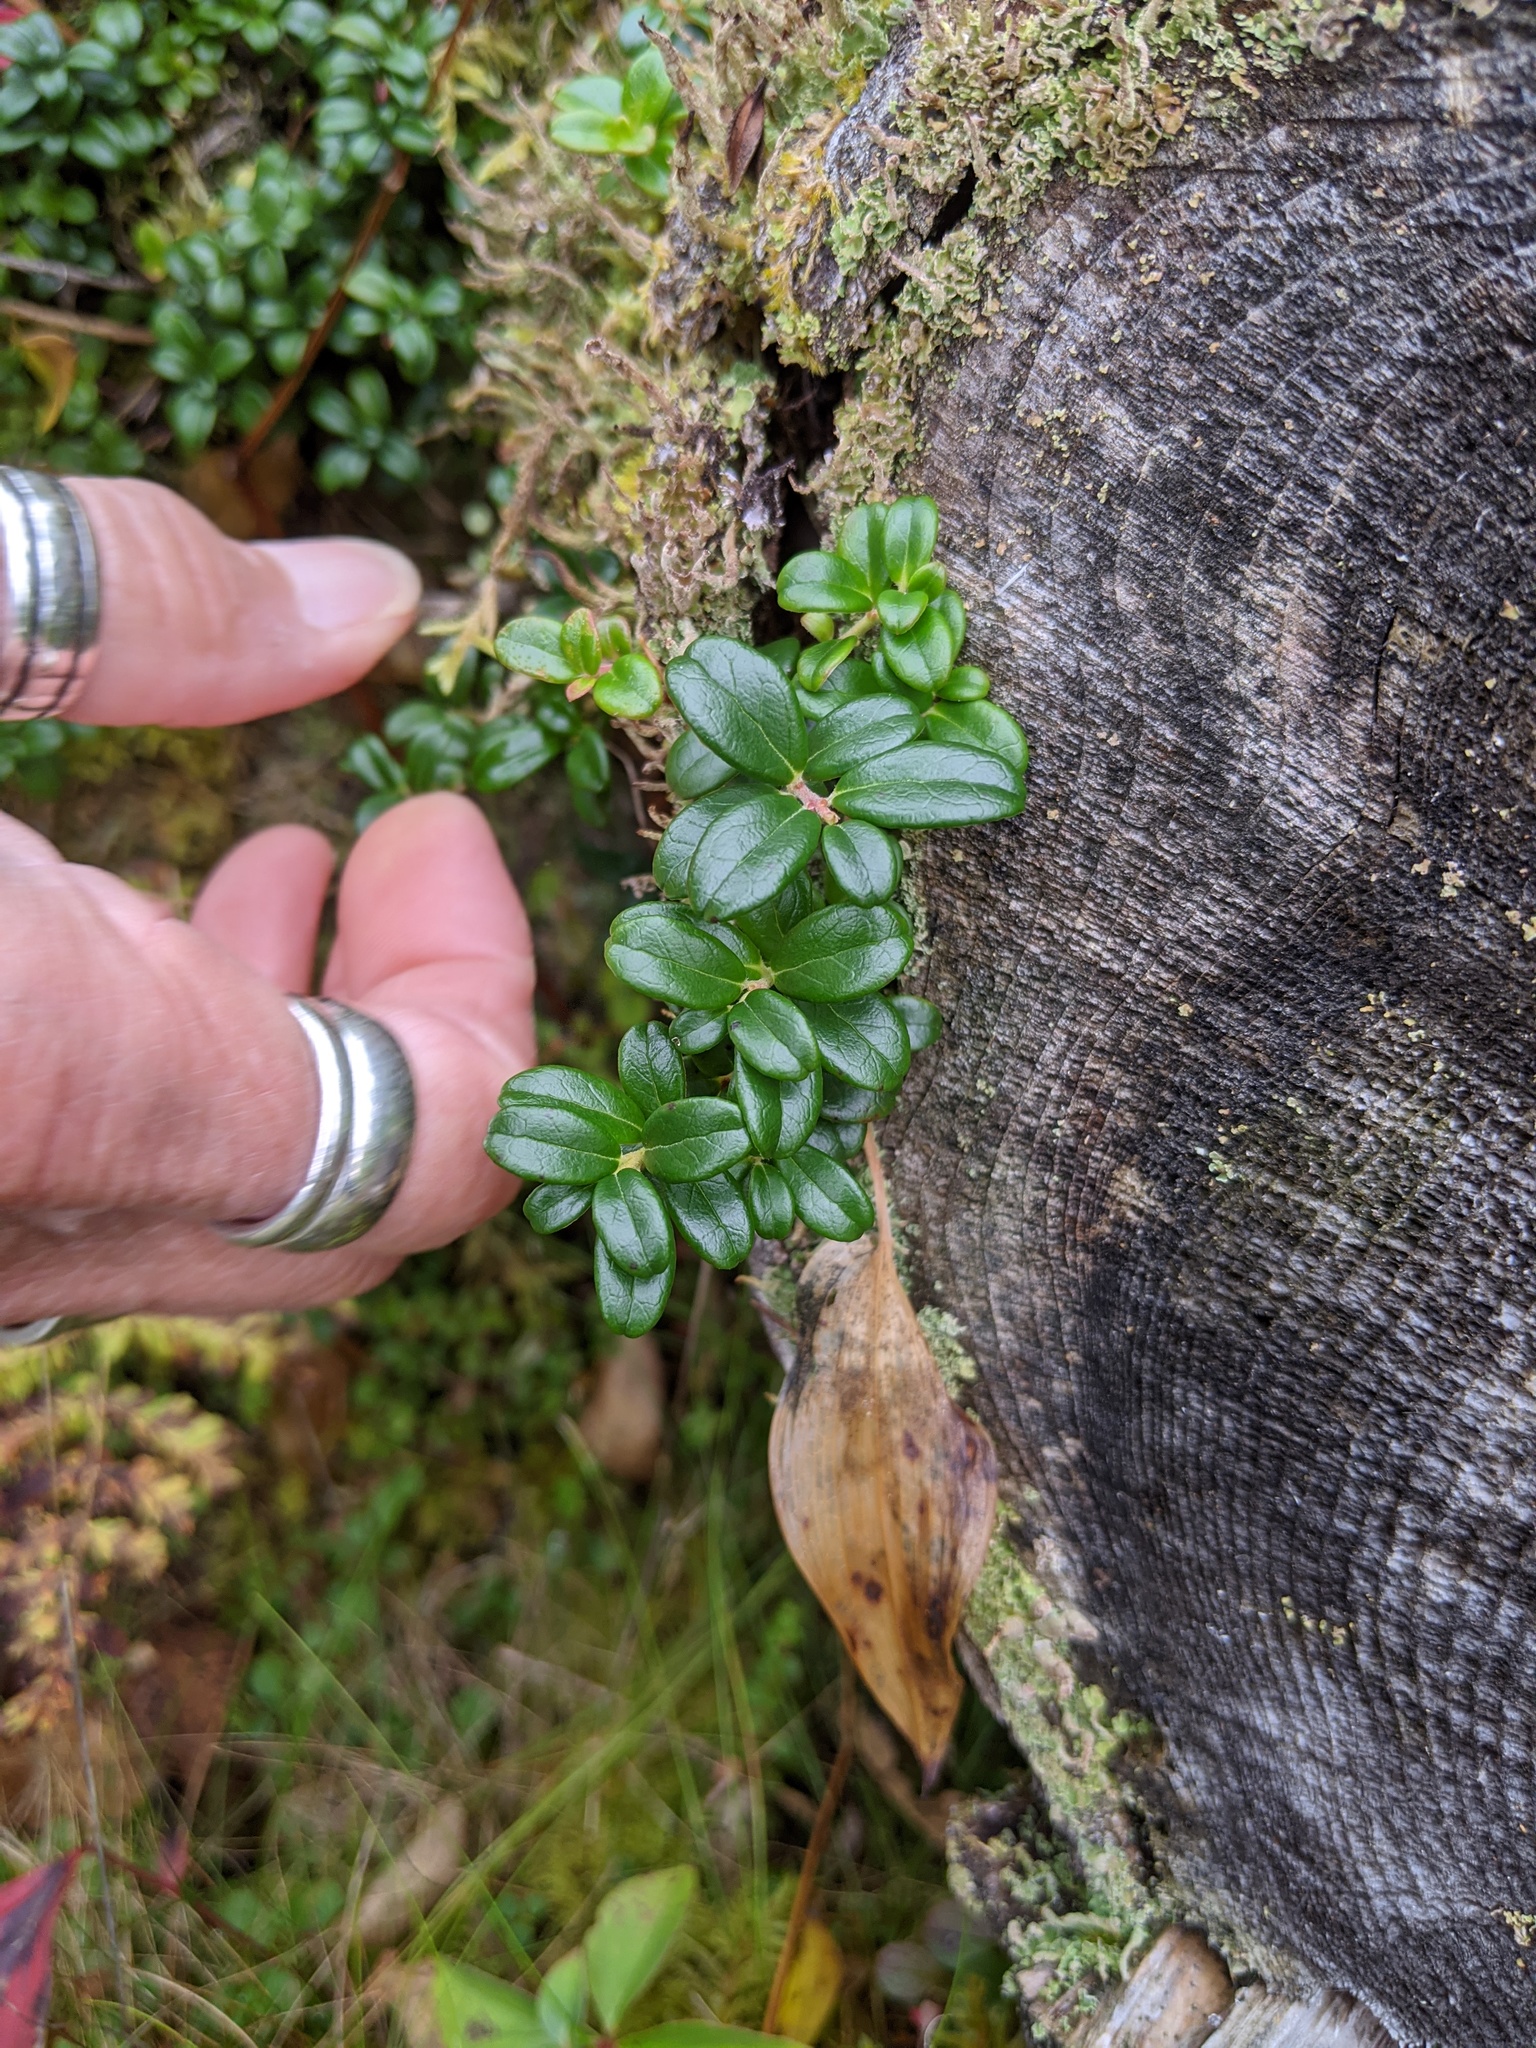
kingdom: Plantae
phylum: Tracheophyta
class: Magnoliopsida
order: Ericales
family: Ericaceae
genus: Vaccinium
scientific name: Vaccinium vitis-idaea
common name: Cowberry
